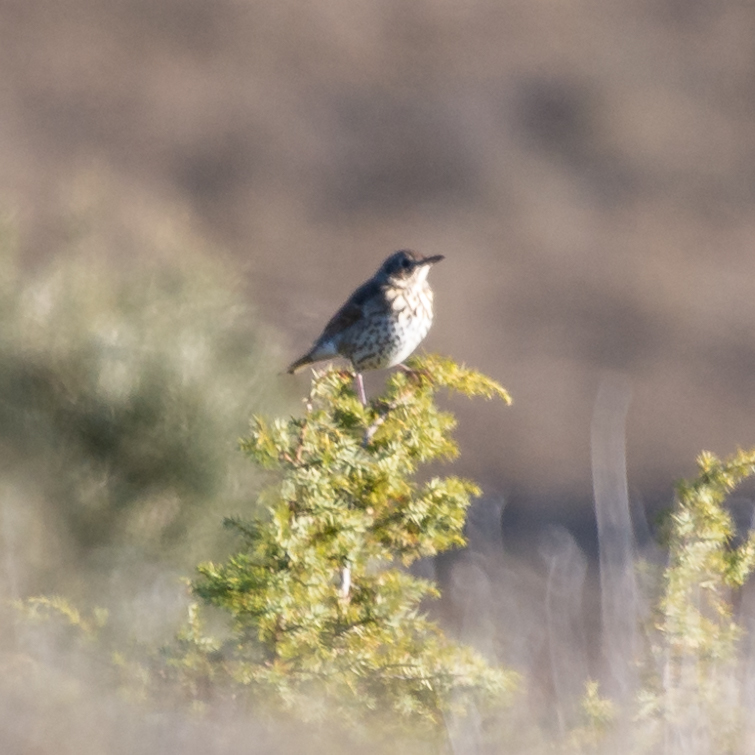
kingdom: Animalia
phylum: Chordata
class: Aves
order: Passeriformes
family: Turdidae
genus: Turdus
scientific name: Turdus viscivorus
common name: Mistle thrush
